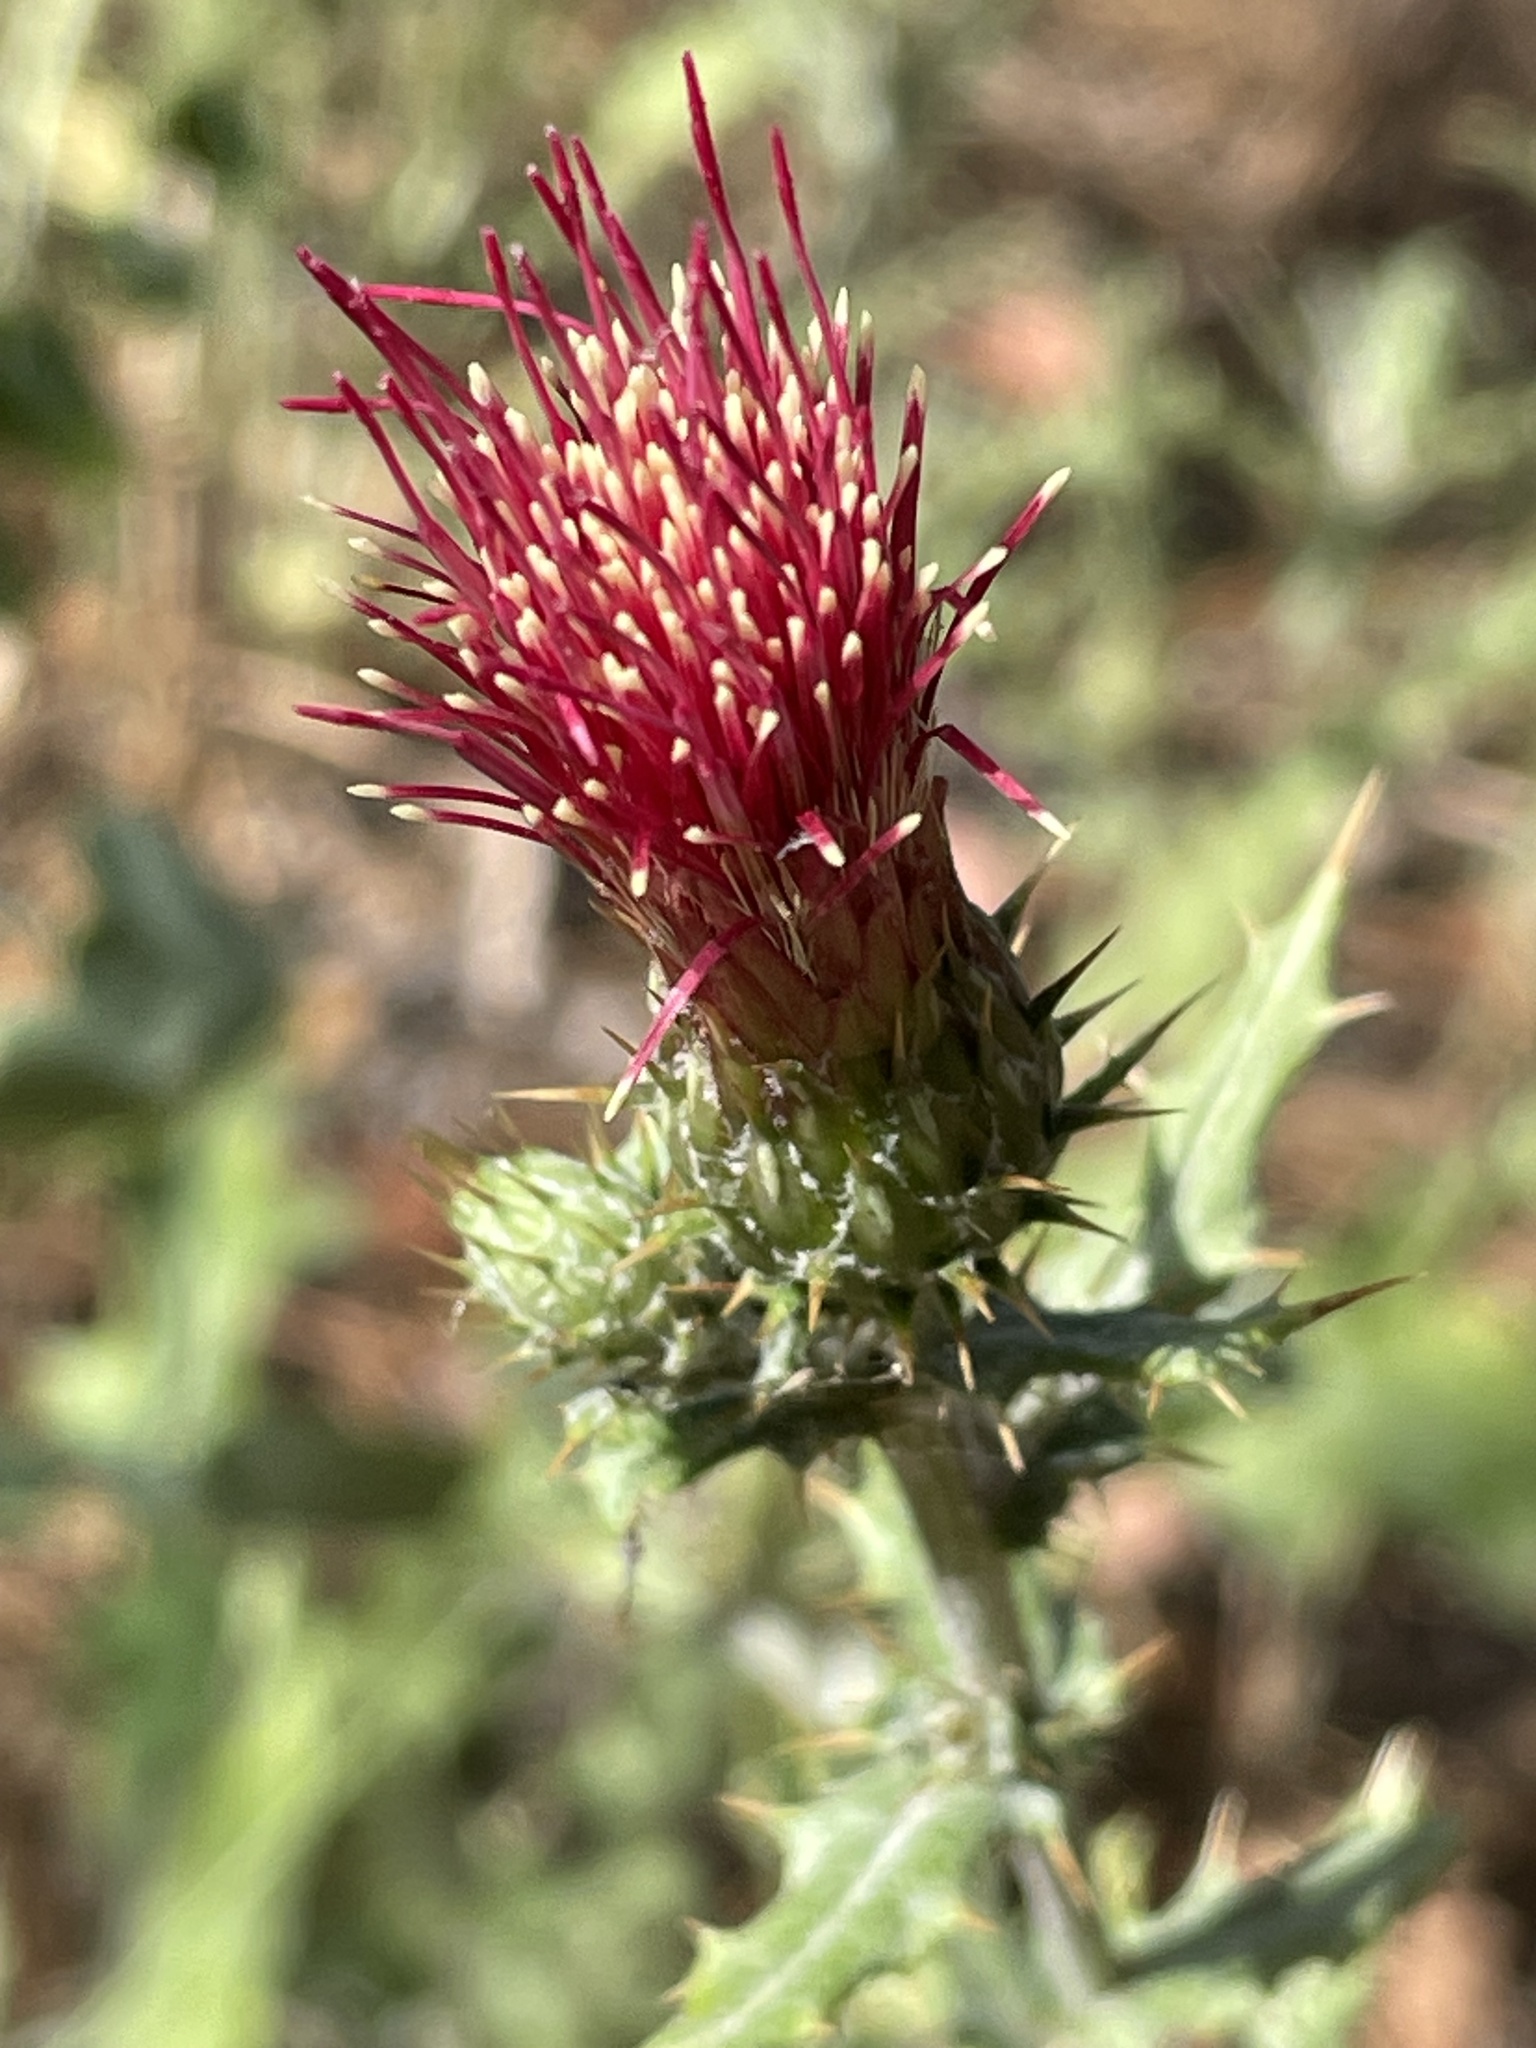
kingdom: Plantae
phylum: Tracheophyta
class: Magnoliopsida
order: Asterales
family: Asteraceae
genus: Cirsium
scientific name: Cirsium arizonicum
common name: Arizona thistle
